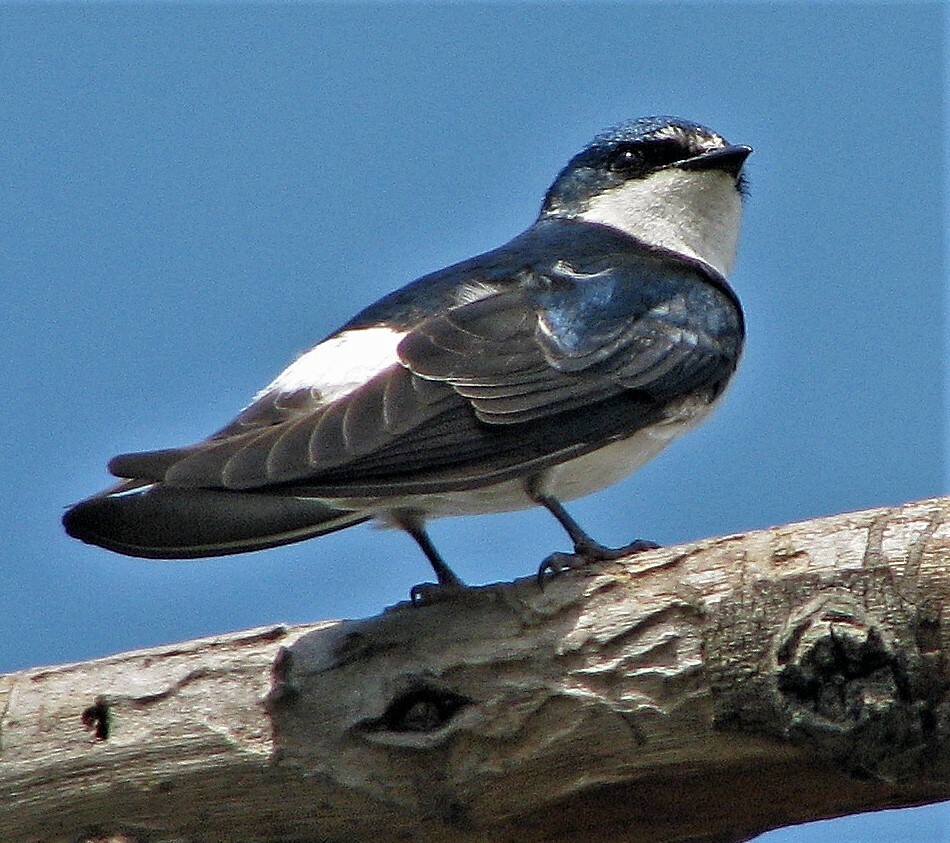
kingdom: Animalia
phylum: Chordata
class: Aves
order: Passeriformes
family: Hirundinidae
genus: Tachycineta
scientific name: Tachycineta leucorrhoa
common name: White-rumped swallow
